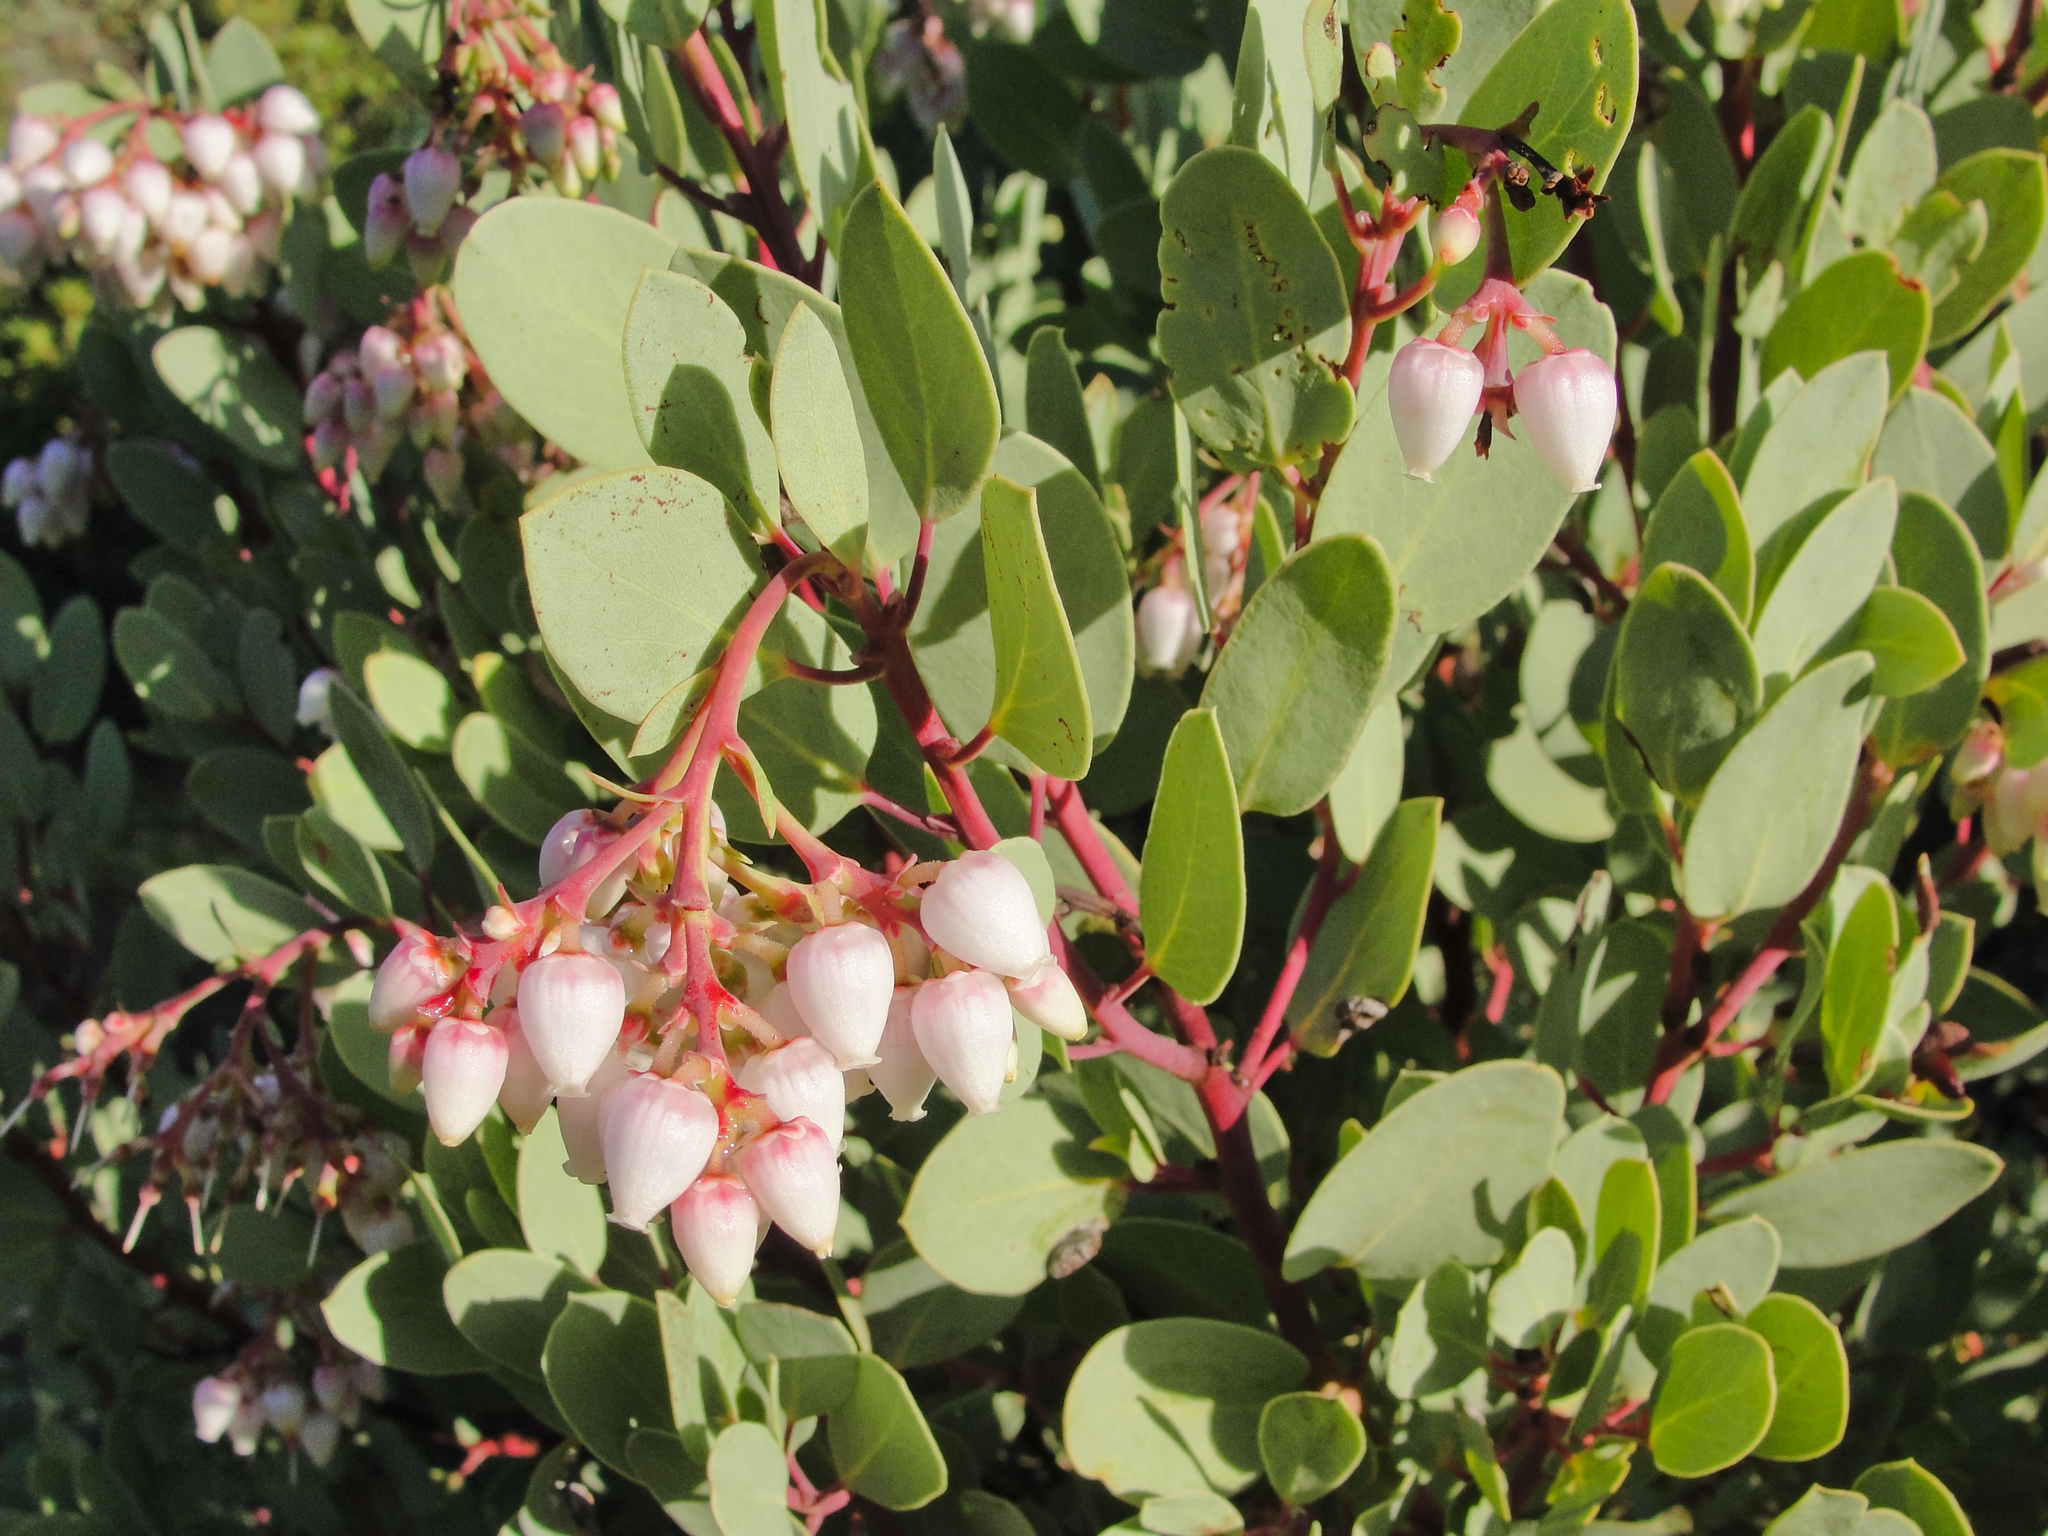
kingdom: Plantae
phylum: Tracheophyta
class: Magnoliopsida
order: Ericales
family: Ericaceae
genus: Arctostaphylos
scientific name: Arctostaphylos glauca
